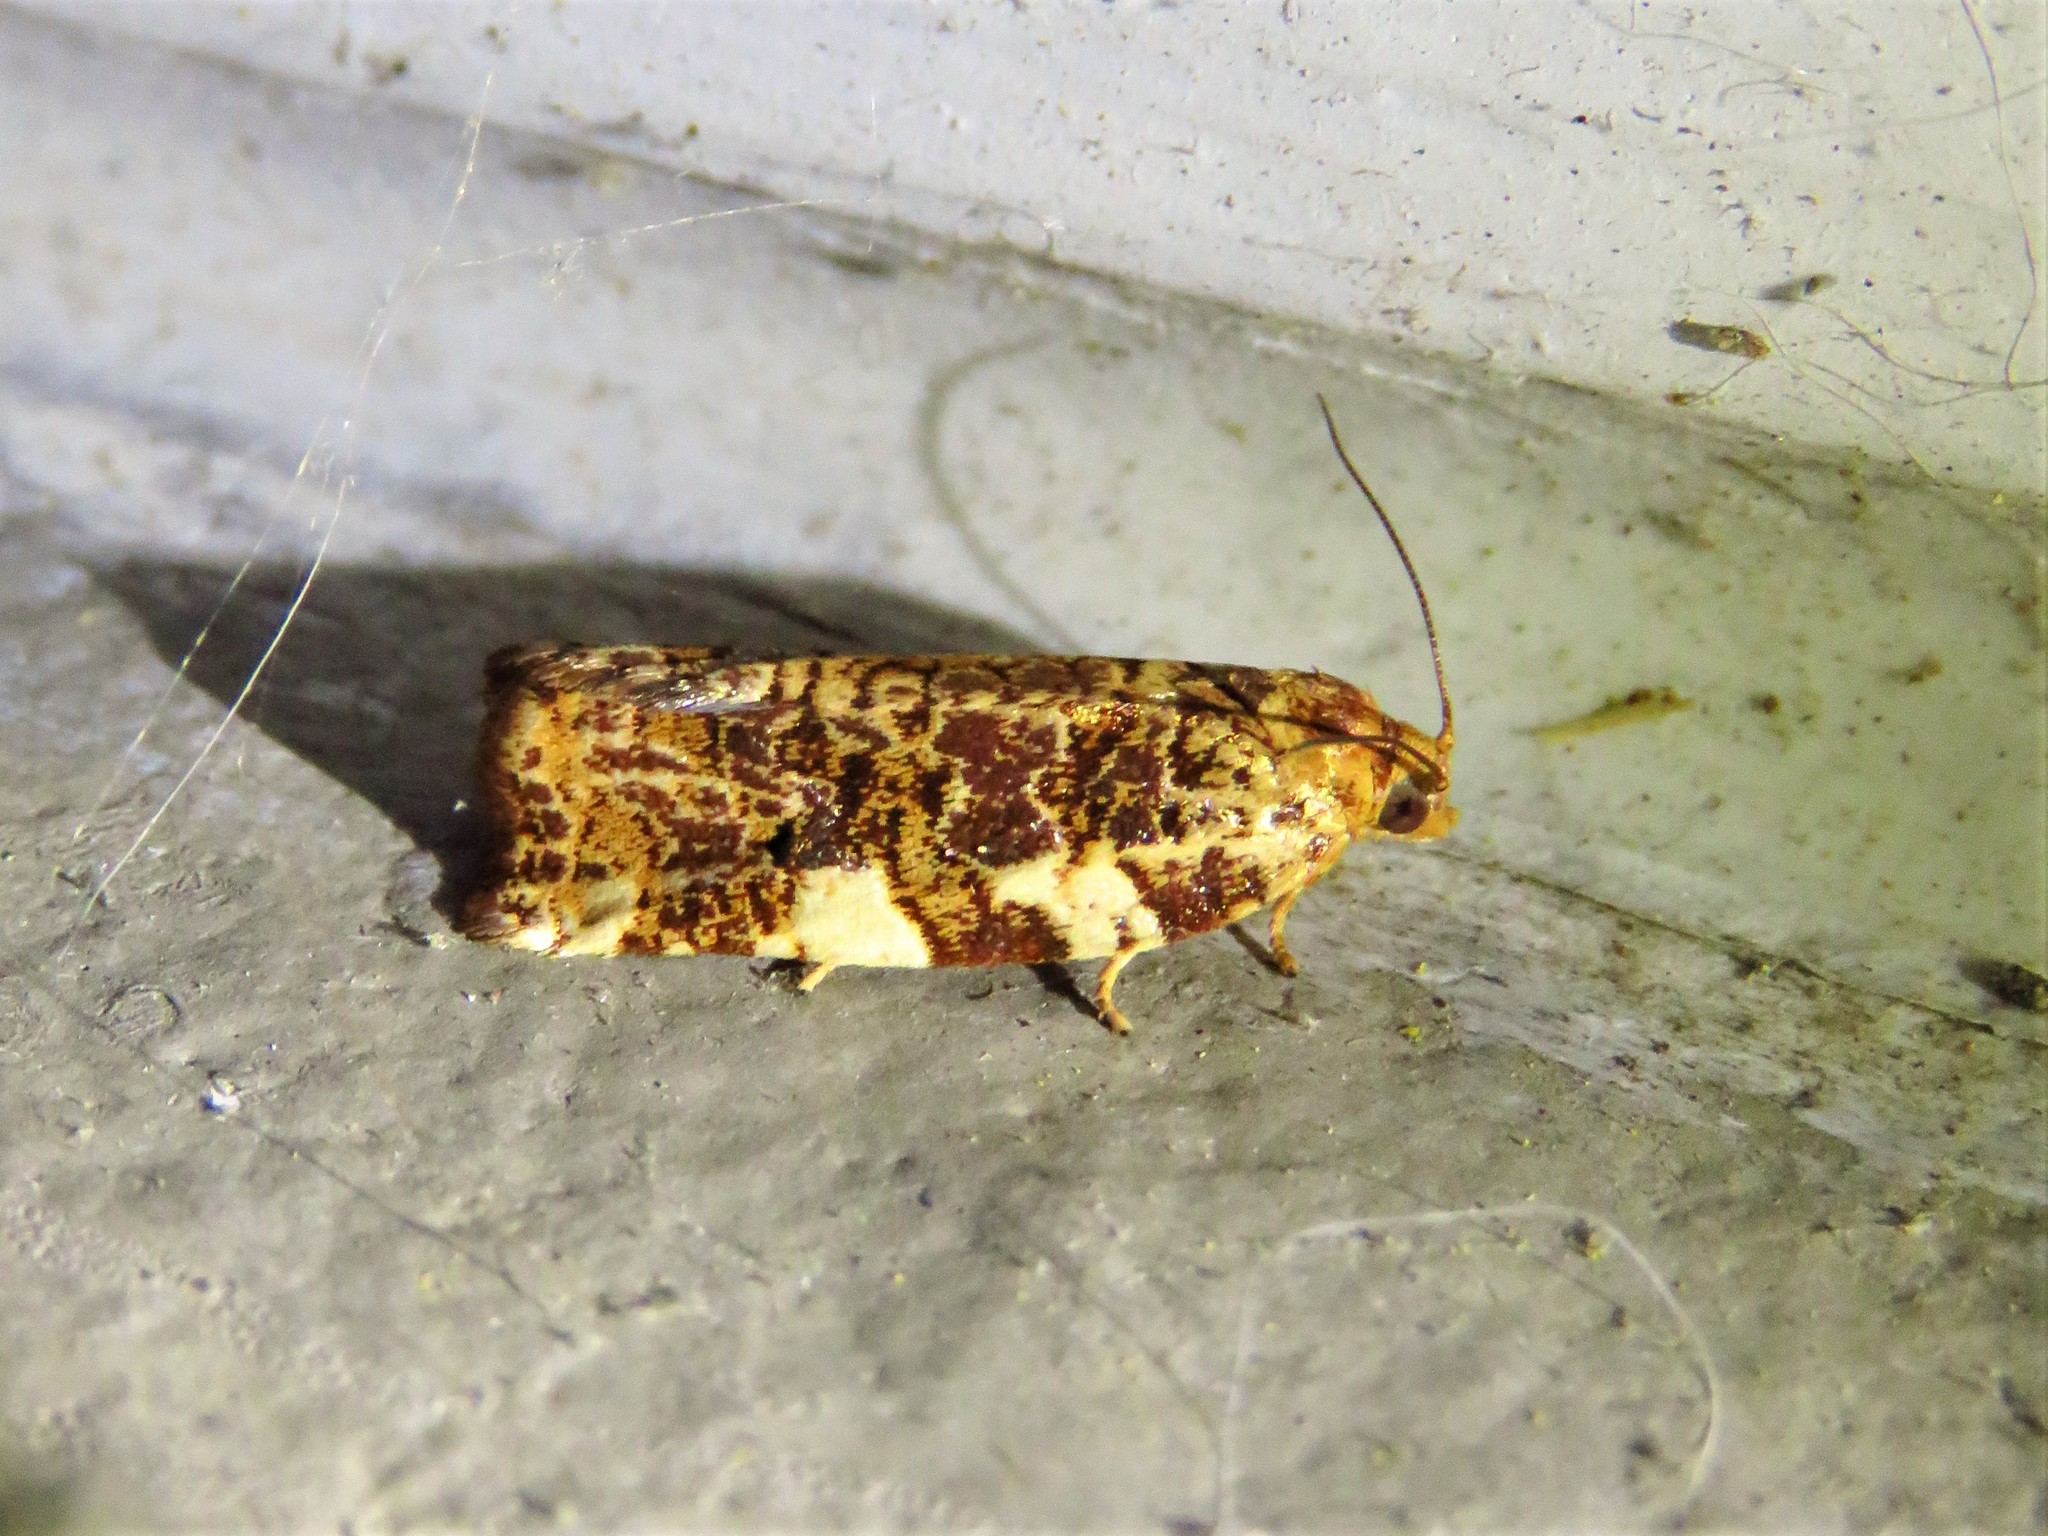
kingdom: Animalia
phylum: Arthropoda
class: Insecta
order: Lepidoptera
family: Tortricidae
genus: Archips
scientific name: Archips argyrospila
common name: Fruit-tree leafroller moth
